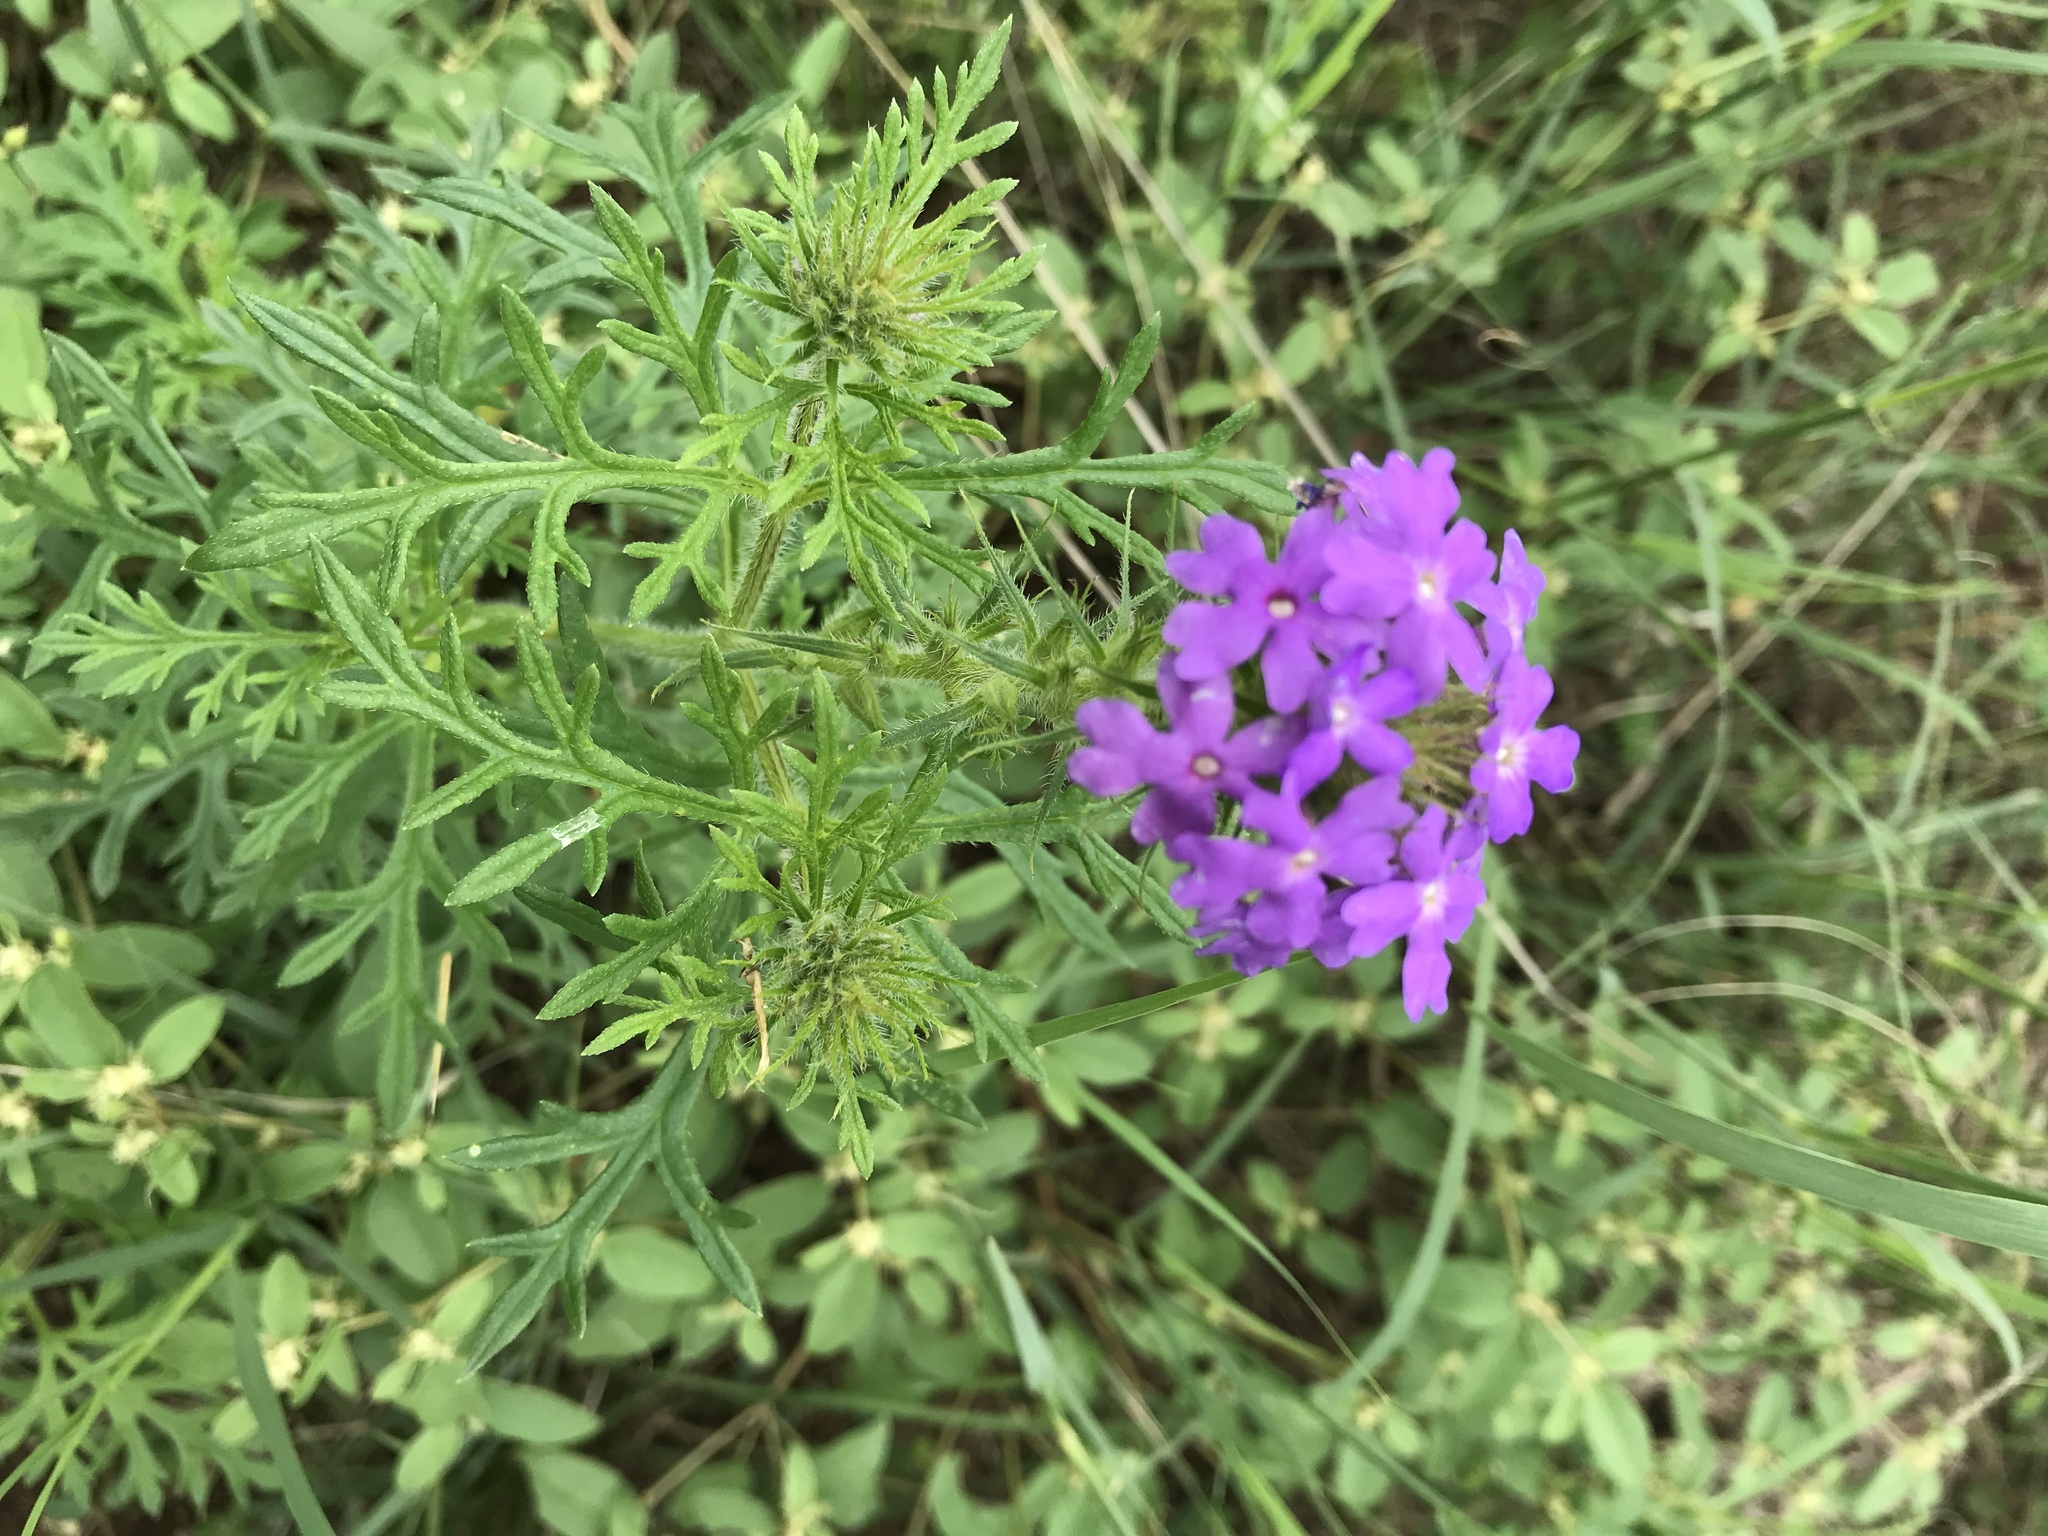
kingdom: Plantae
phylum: Tracheophyta
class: Magnoliopsida
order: Lamiales
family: Verbenaceae
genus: Verbena
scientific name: Verbena bipinnatifida
